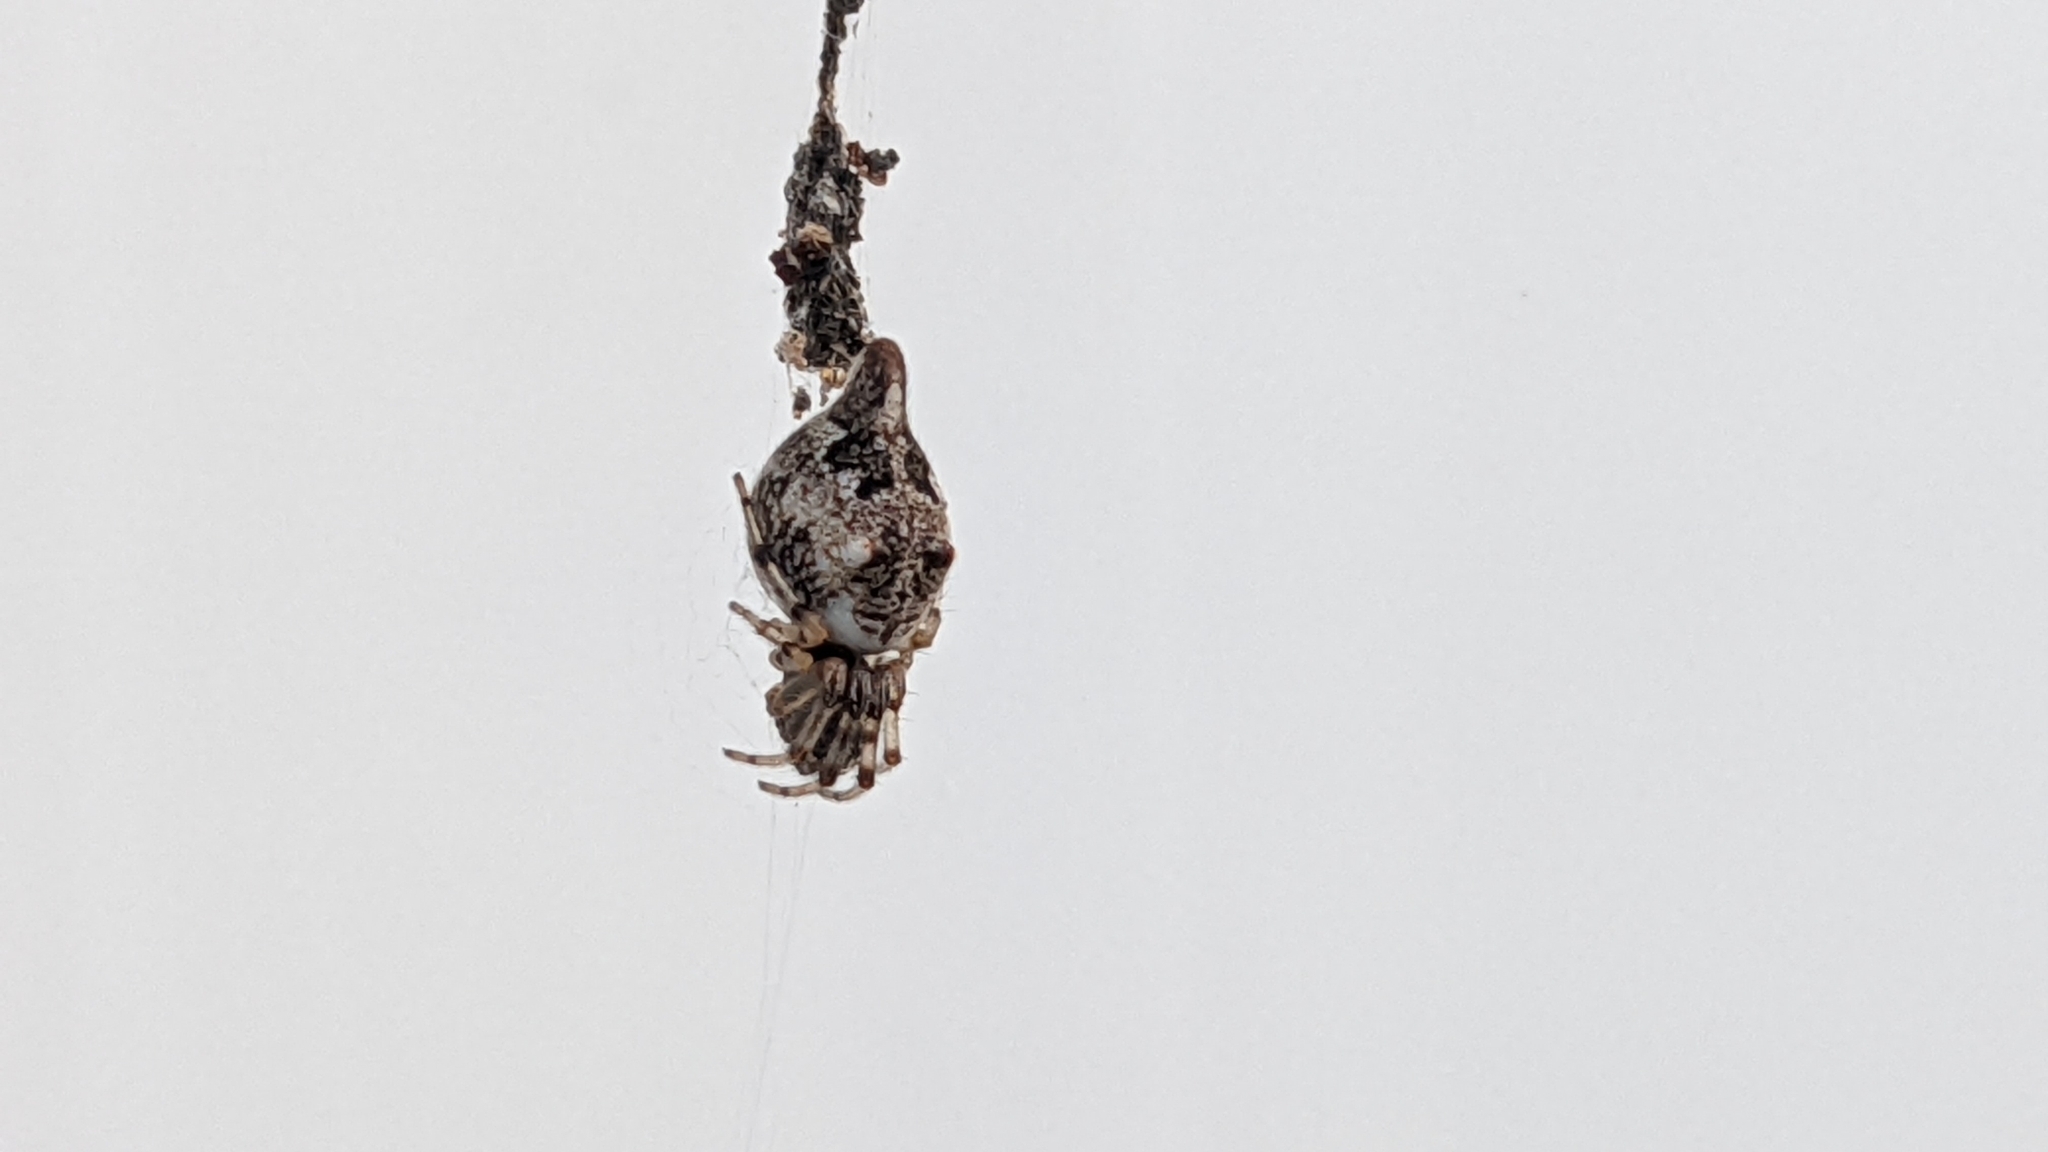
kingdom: Animalia
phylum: Arthropoda
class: Arachnida
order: Araneae
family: Araneidae
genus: Cyclosa
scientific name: Cyclosa turbinata
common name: Orb weavers
